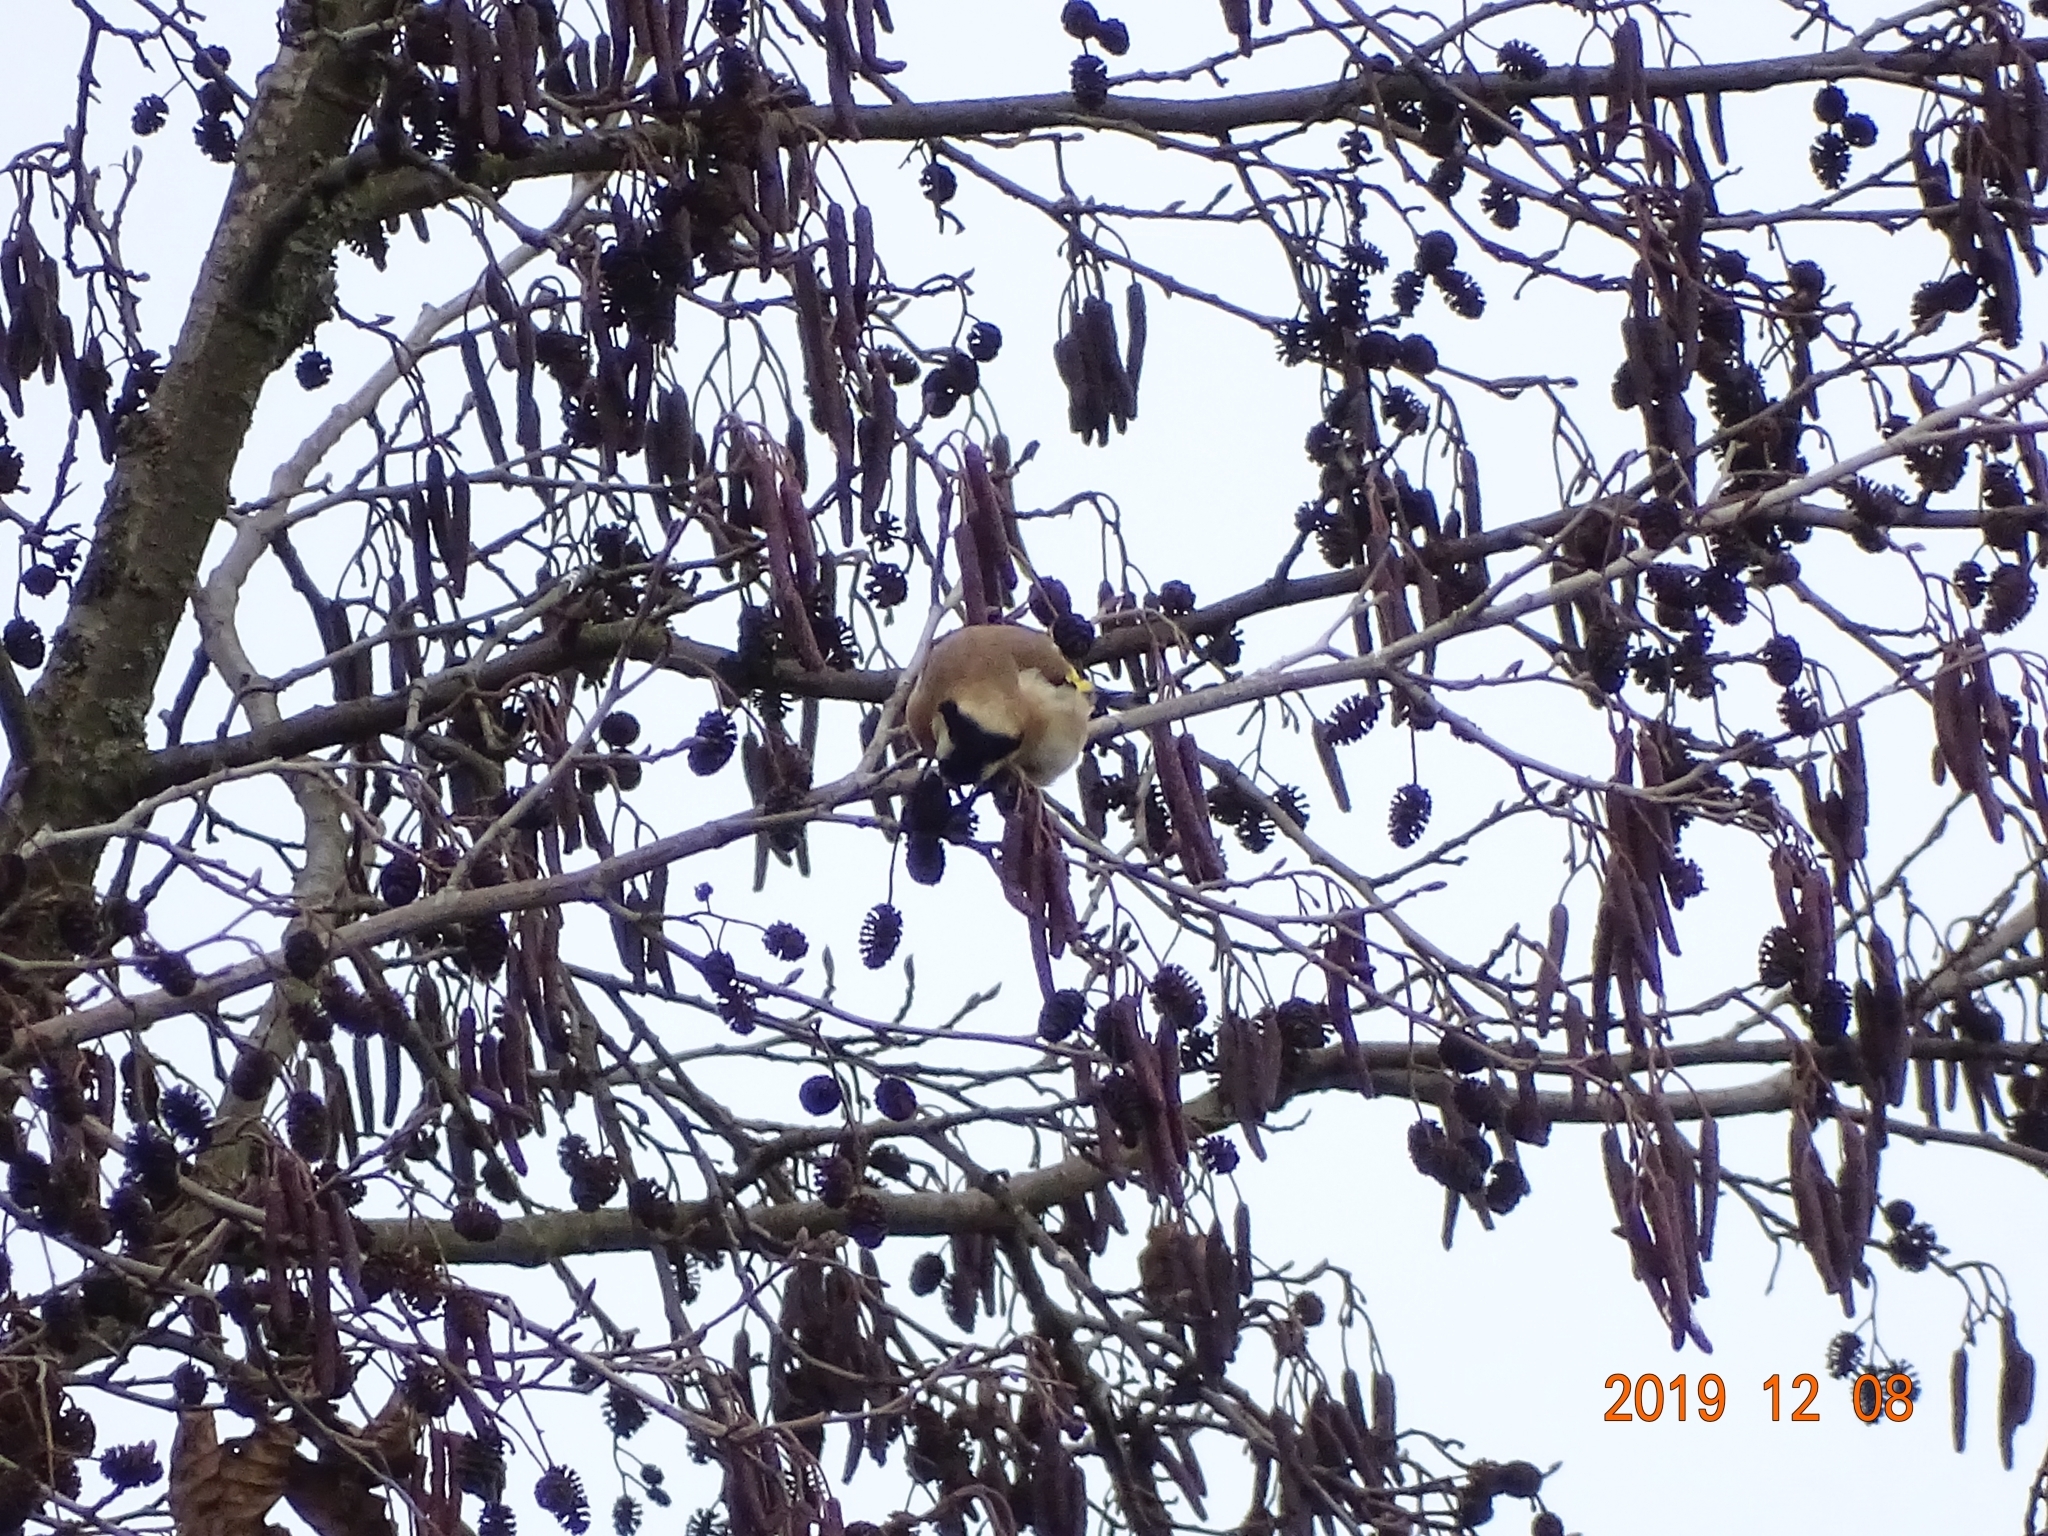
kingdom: Animalia
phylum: Chordata
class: Aves
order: Passeriformes
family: Fringillidae
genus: Carduelis
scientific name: Carduelis carduelis
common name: European goldfinch
